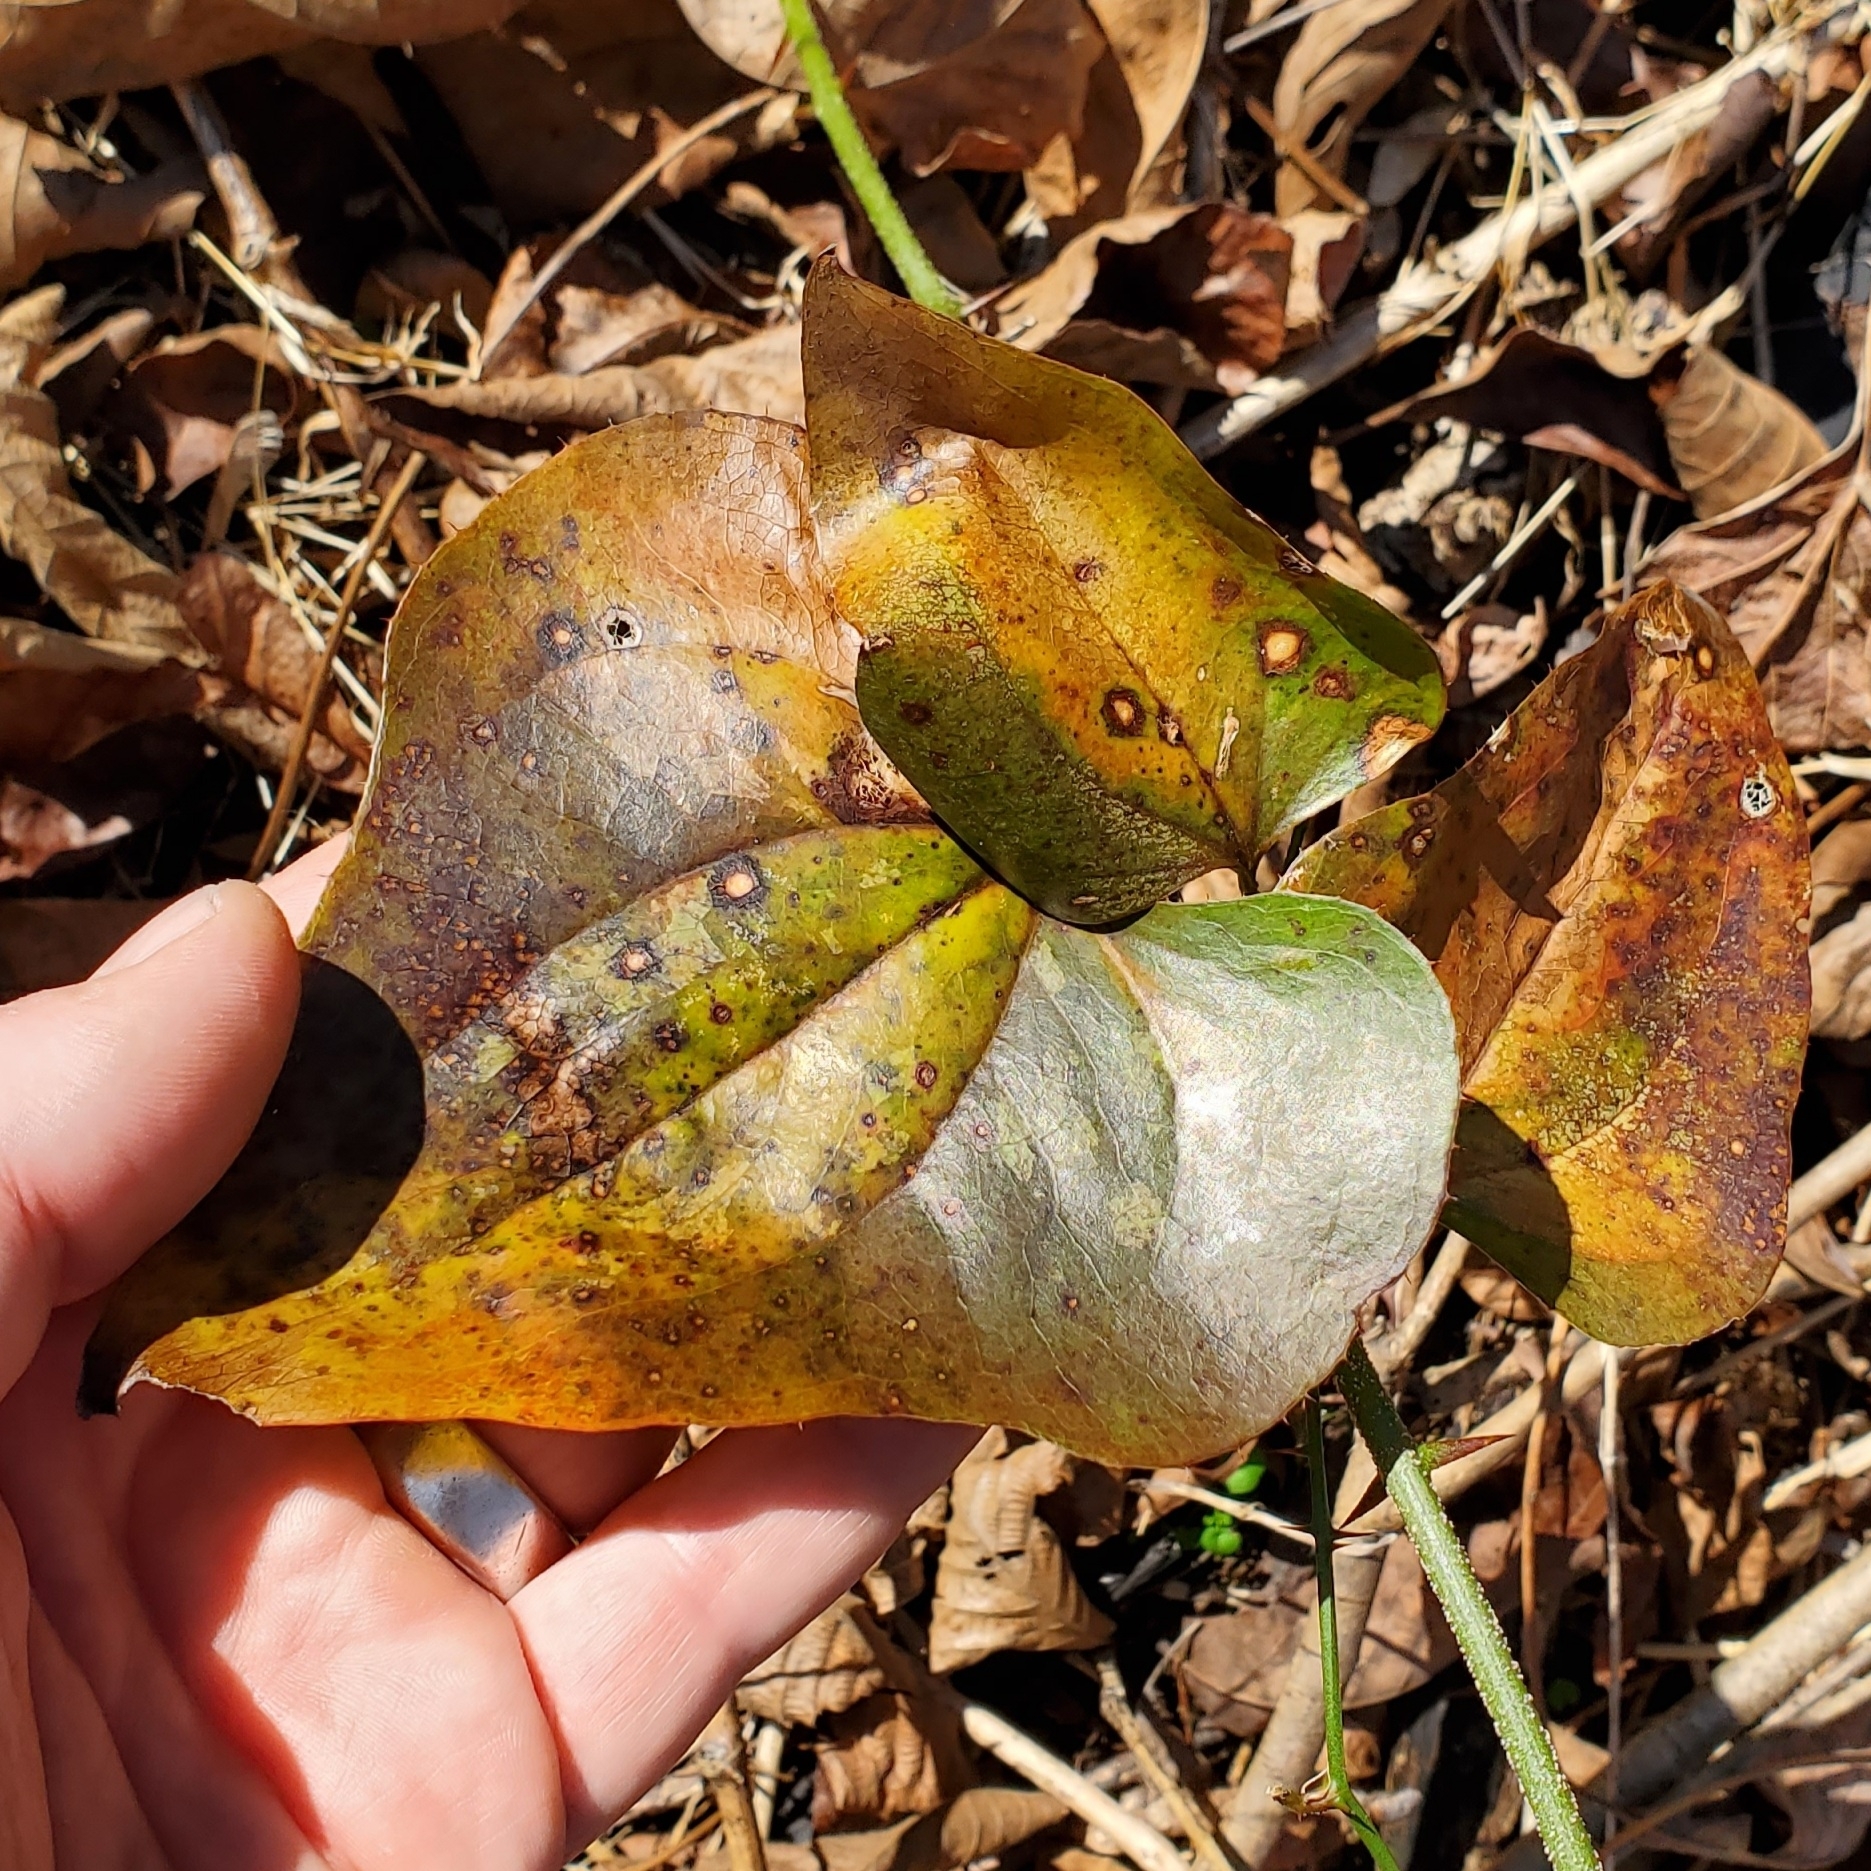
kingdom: Plantae
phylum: Tracheophyta
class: Liliopsida
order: Liliales
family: Smilacaceae
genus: Smilax
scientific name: Smilax bona-nox
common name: Catbrier
